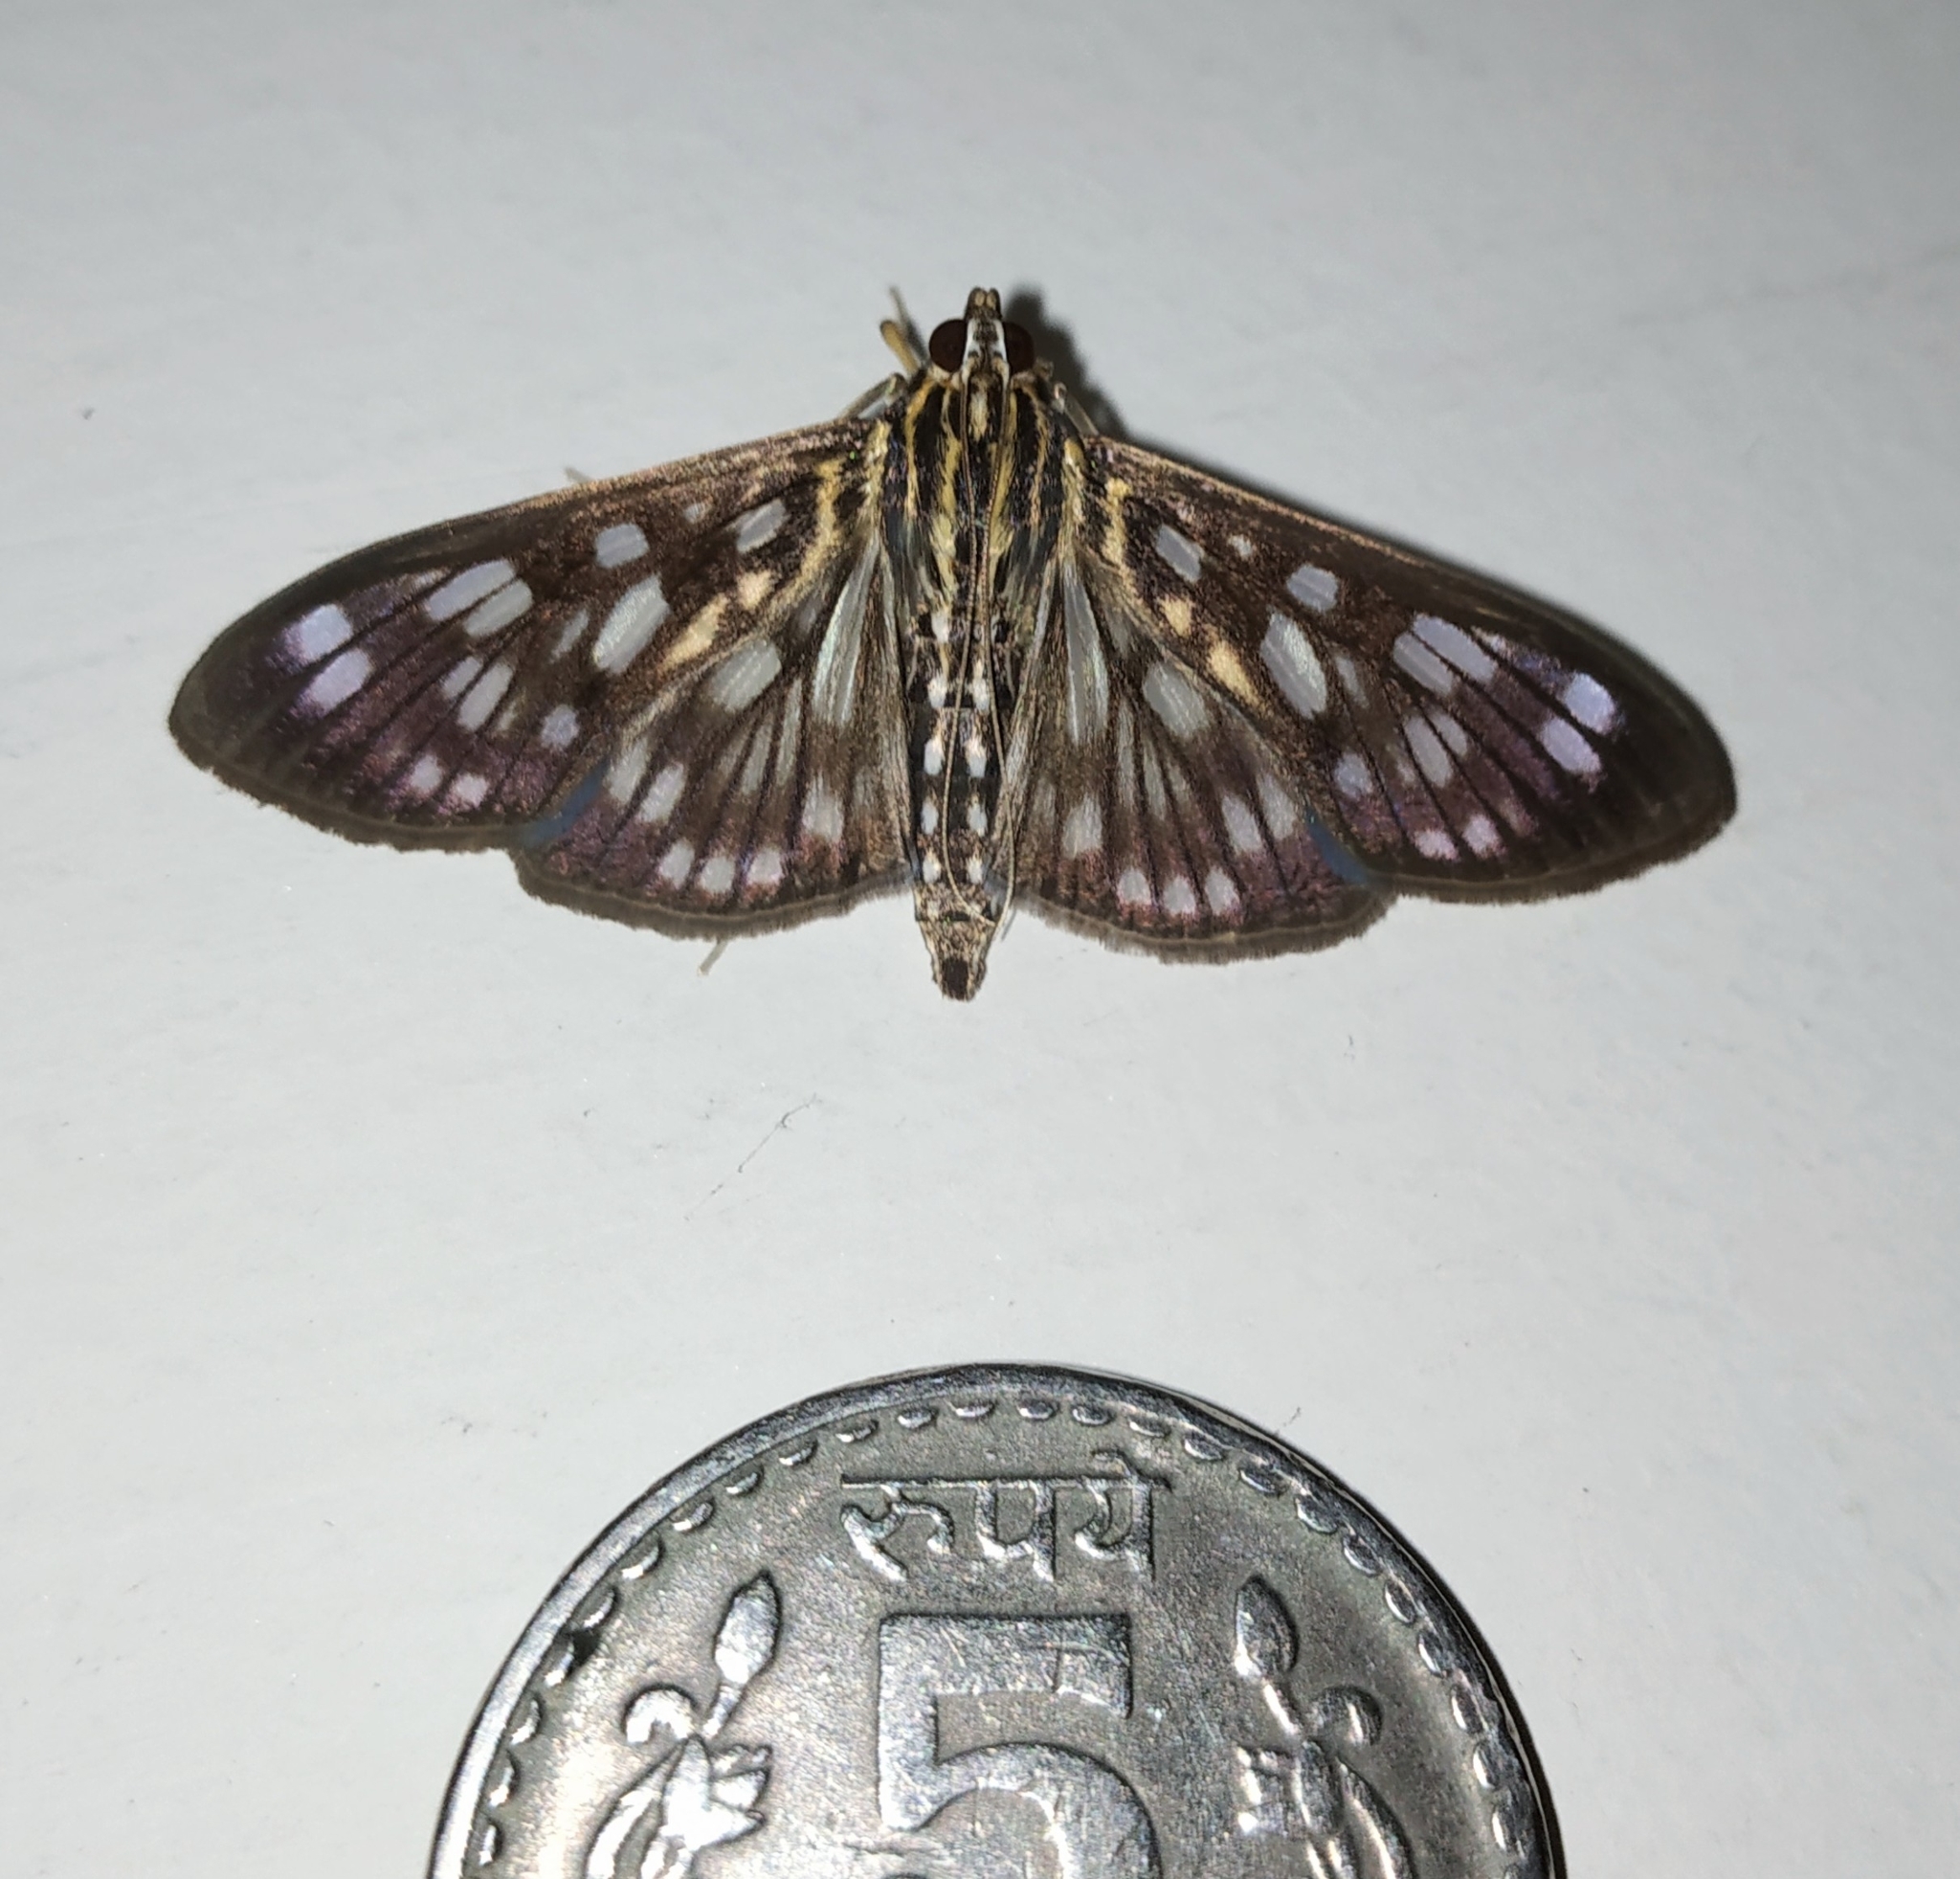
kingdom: Animalia
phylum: Arthropoda
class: Insecta
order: Lepidoptera
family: Crambidae
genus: Pygospila
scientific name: Pygospila costiflexalis
